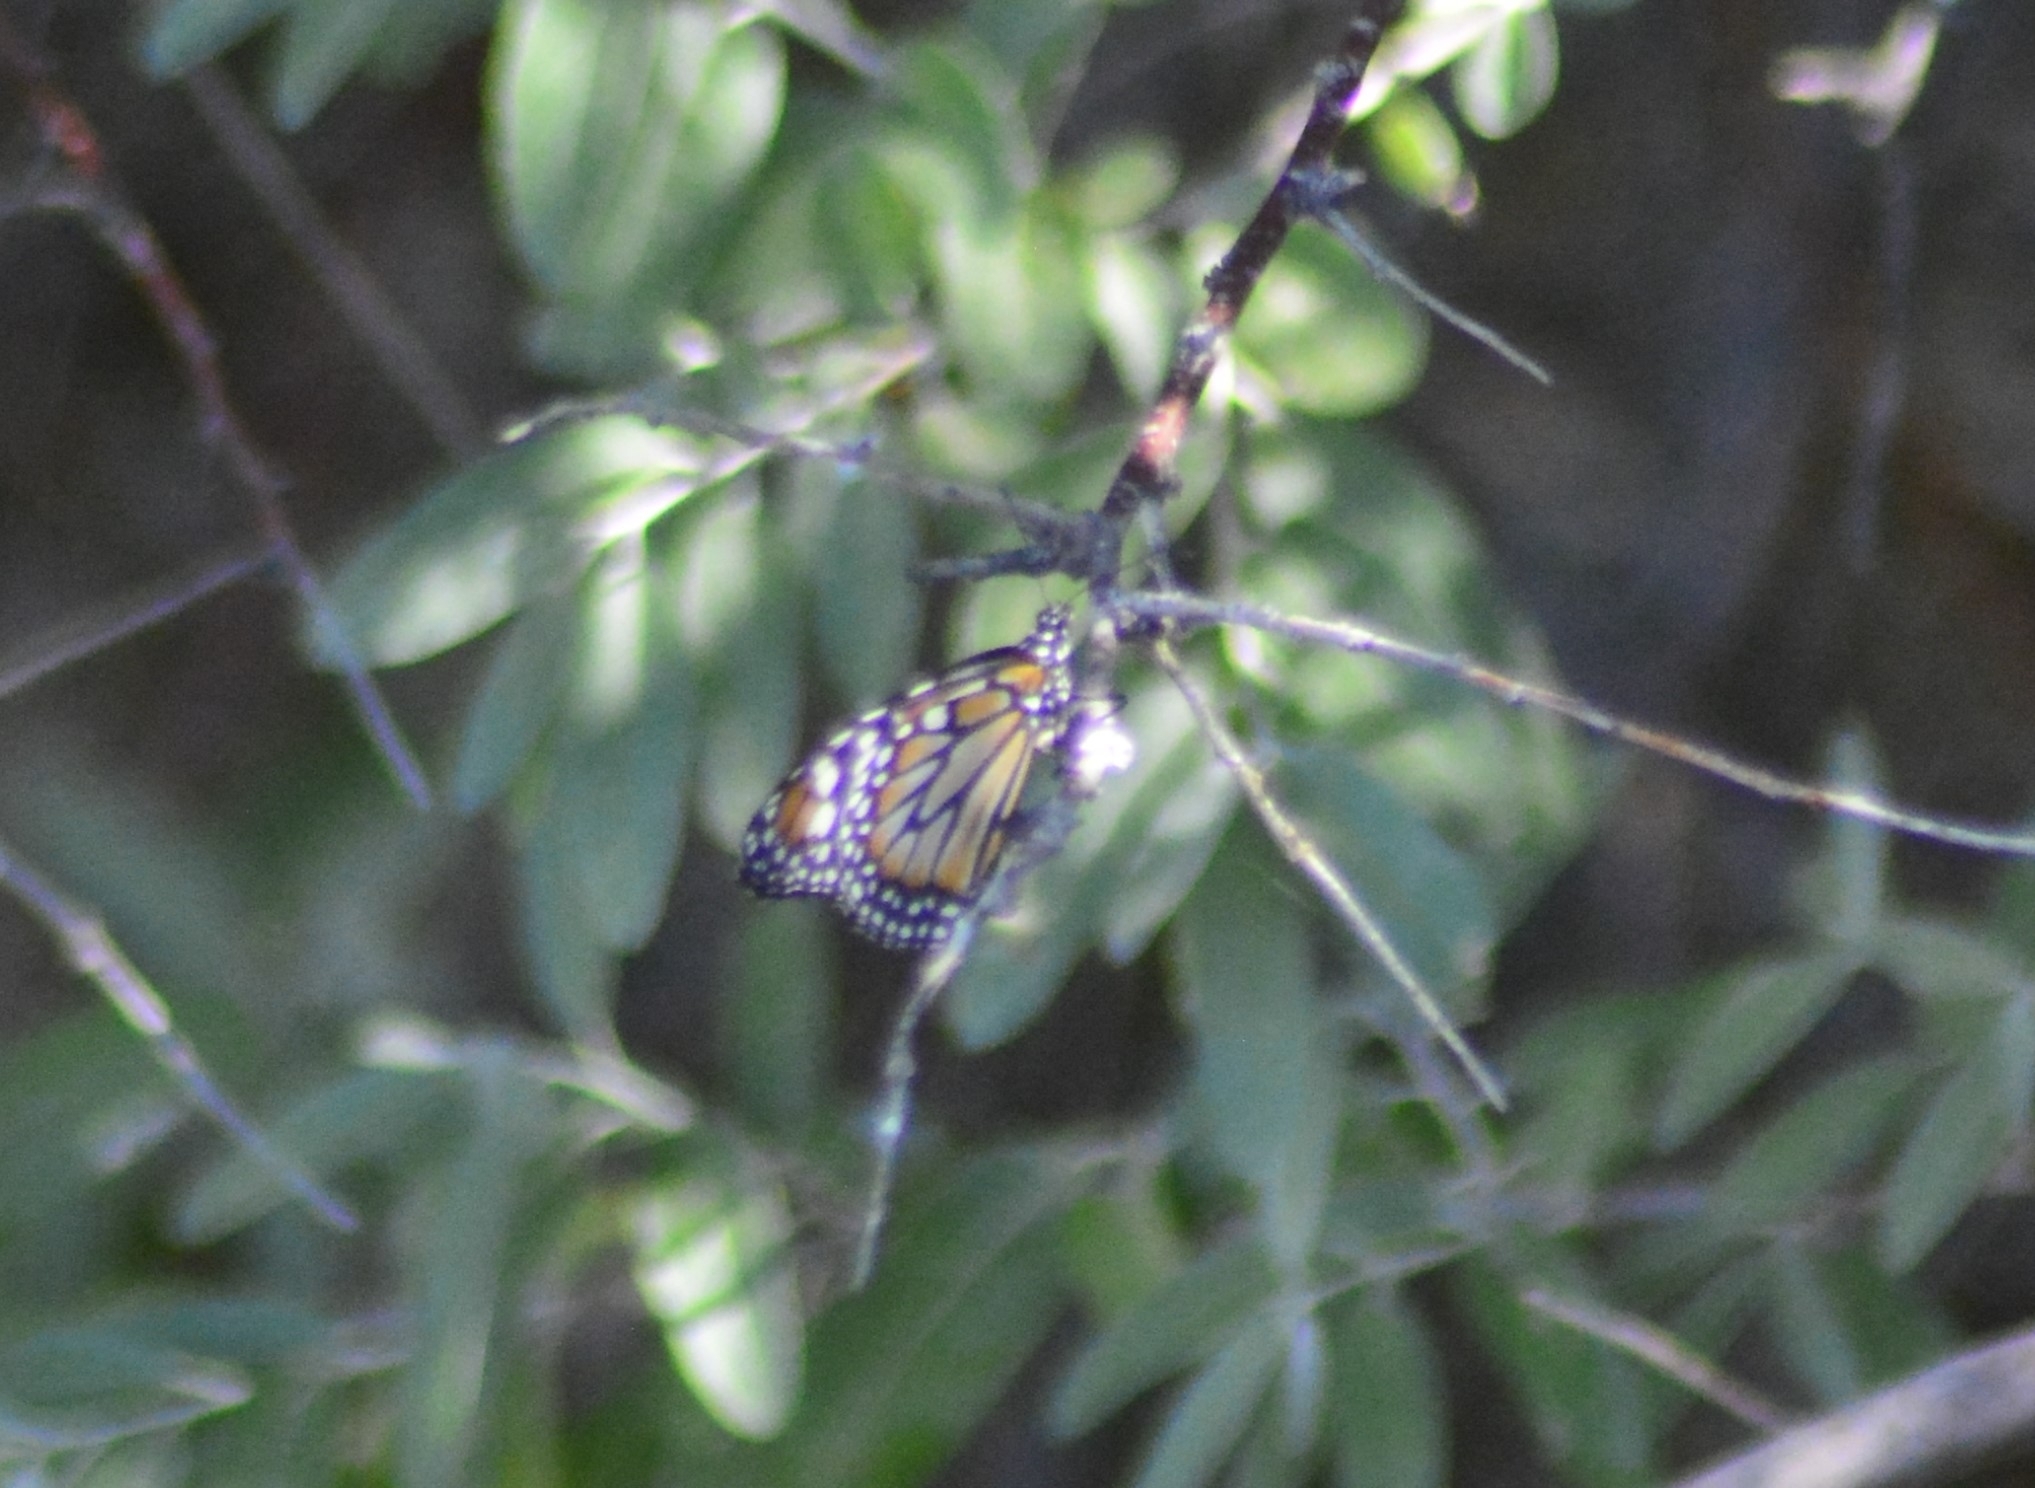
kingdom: Animalia
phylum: Arthropoda
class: Insecta
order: Lepidoptera
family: Nymphalidae
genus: Danaus
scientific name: Danaus erippus
